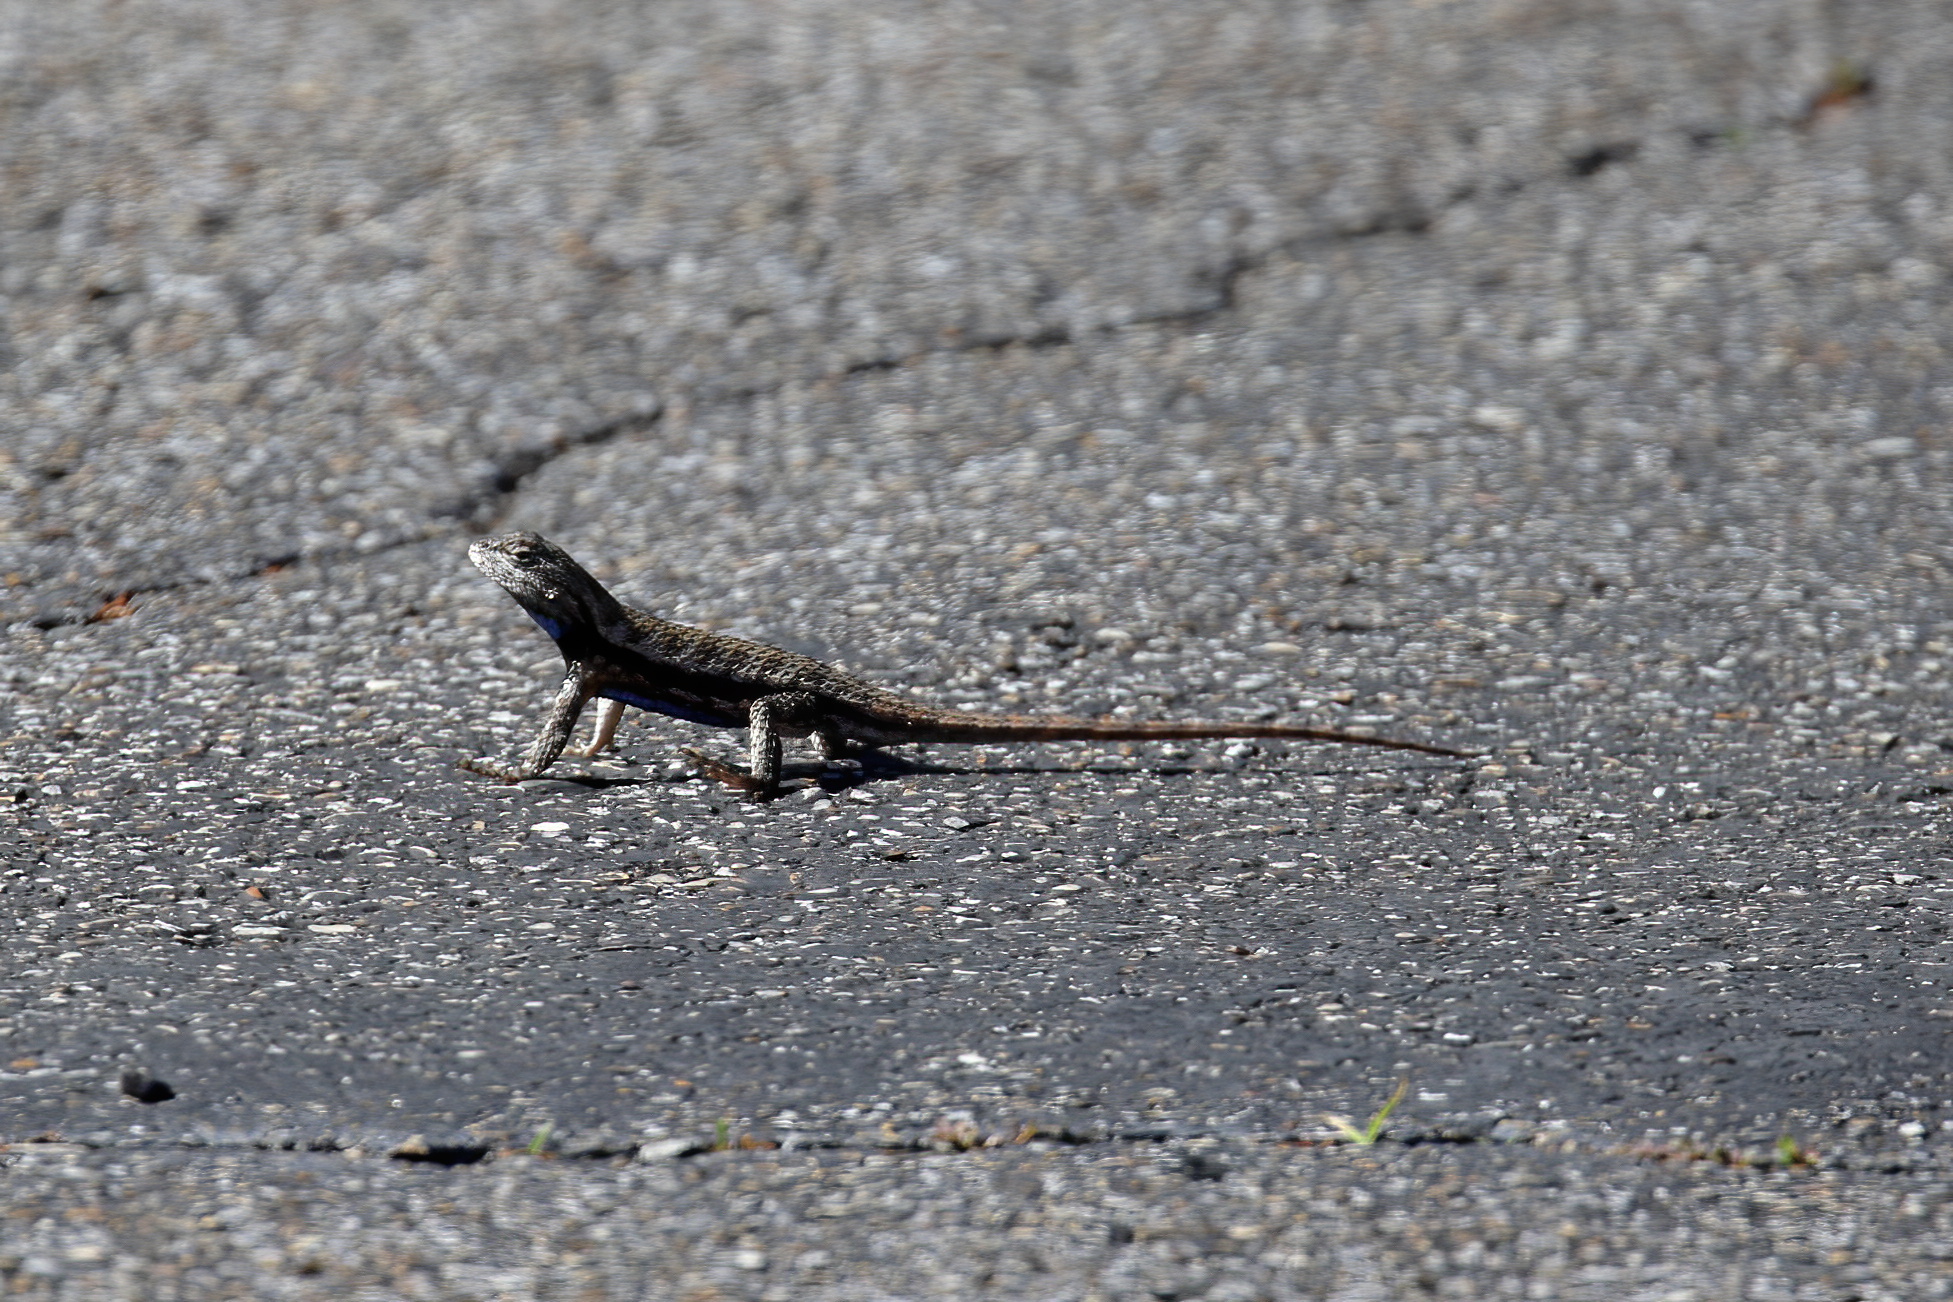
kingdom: Animalia
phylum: Chordata
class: Squamata
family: Phrynosomatidae
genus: Sceloporus
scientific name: Sceloporus undulatus
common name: Eastern fence lizard
